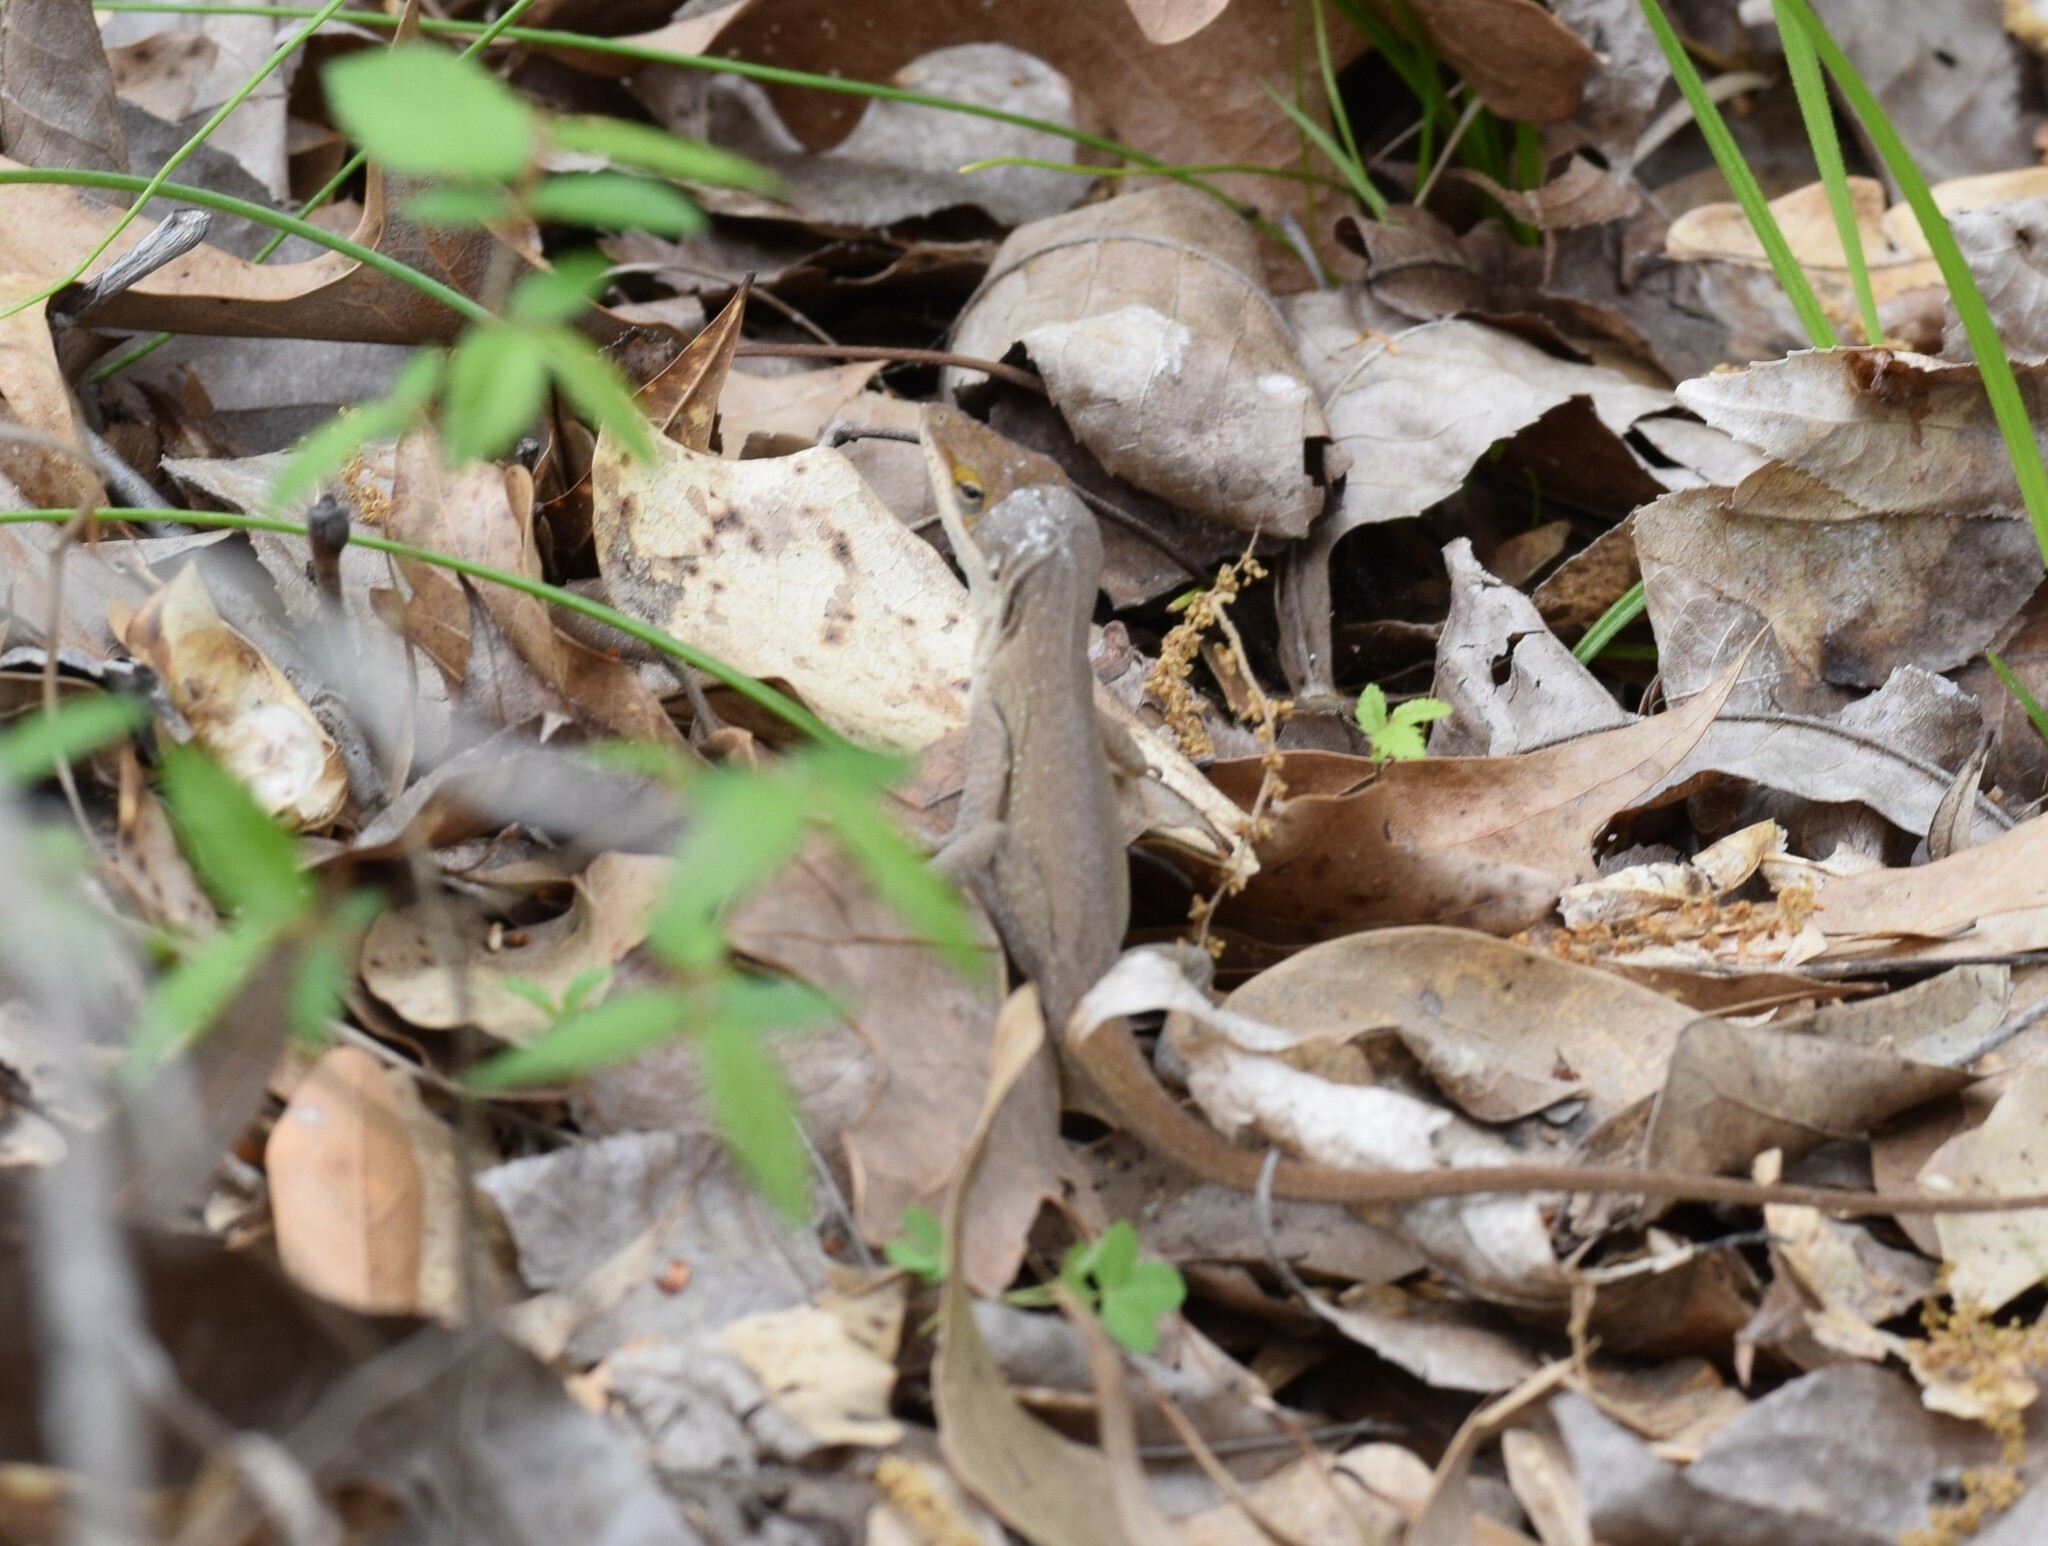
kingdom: Animalia
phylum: Chordata
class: Squamata
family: Dactyloidae
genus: Anolis
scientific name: Anolis carolinensis
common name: Green anole
